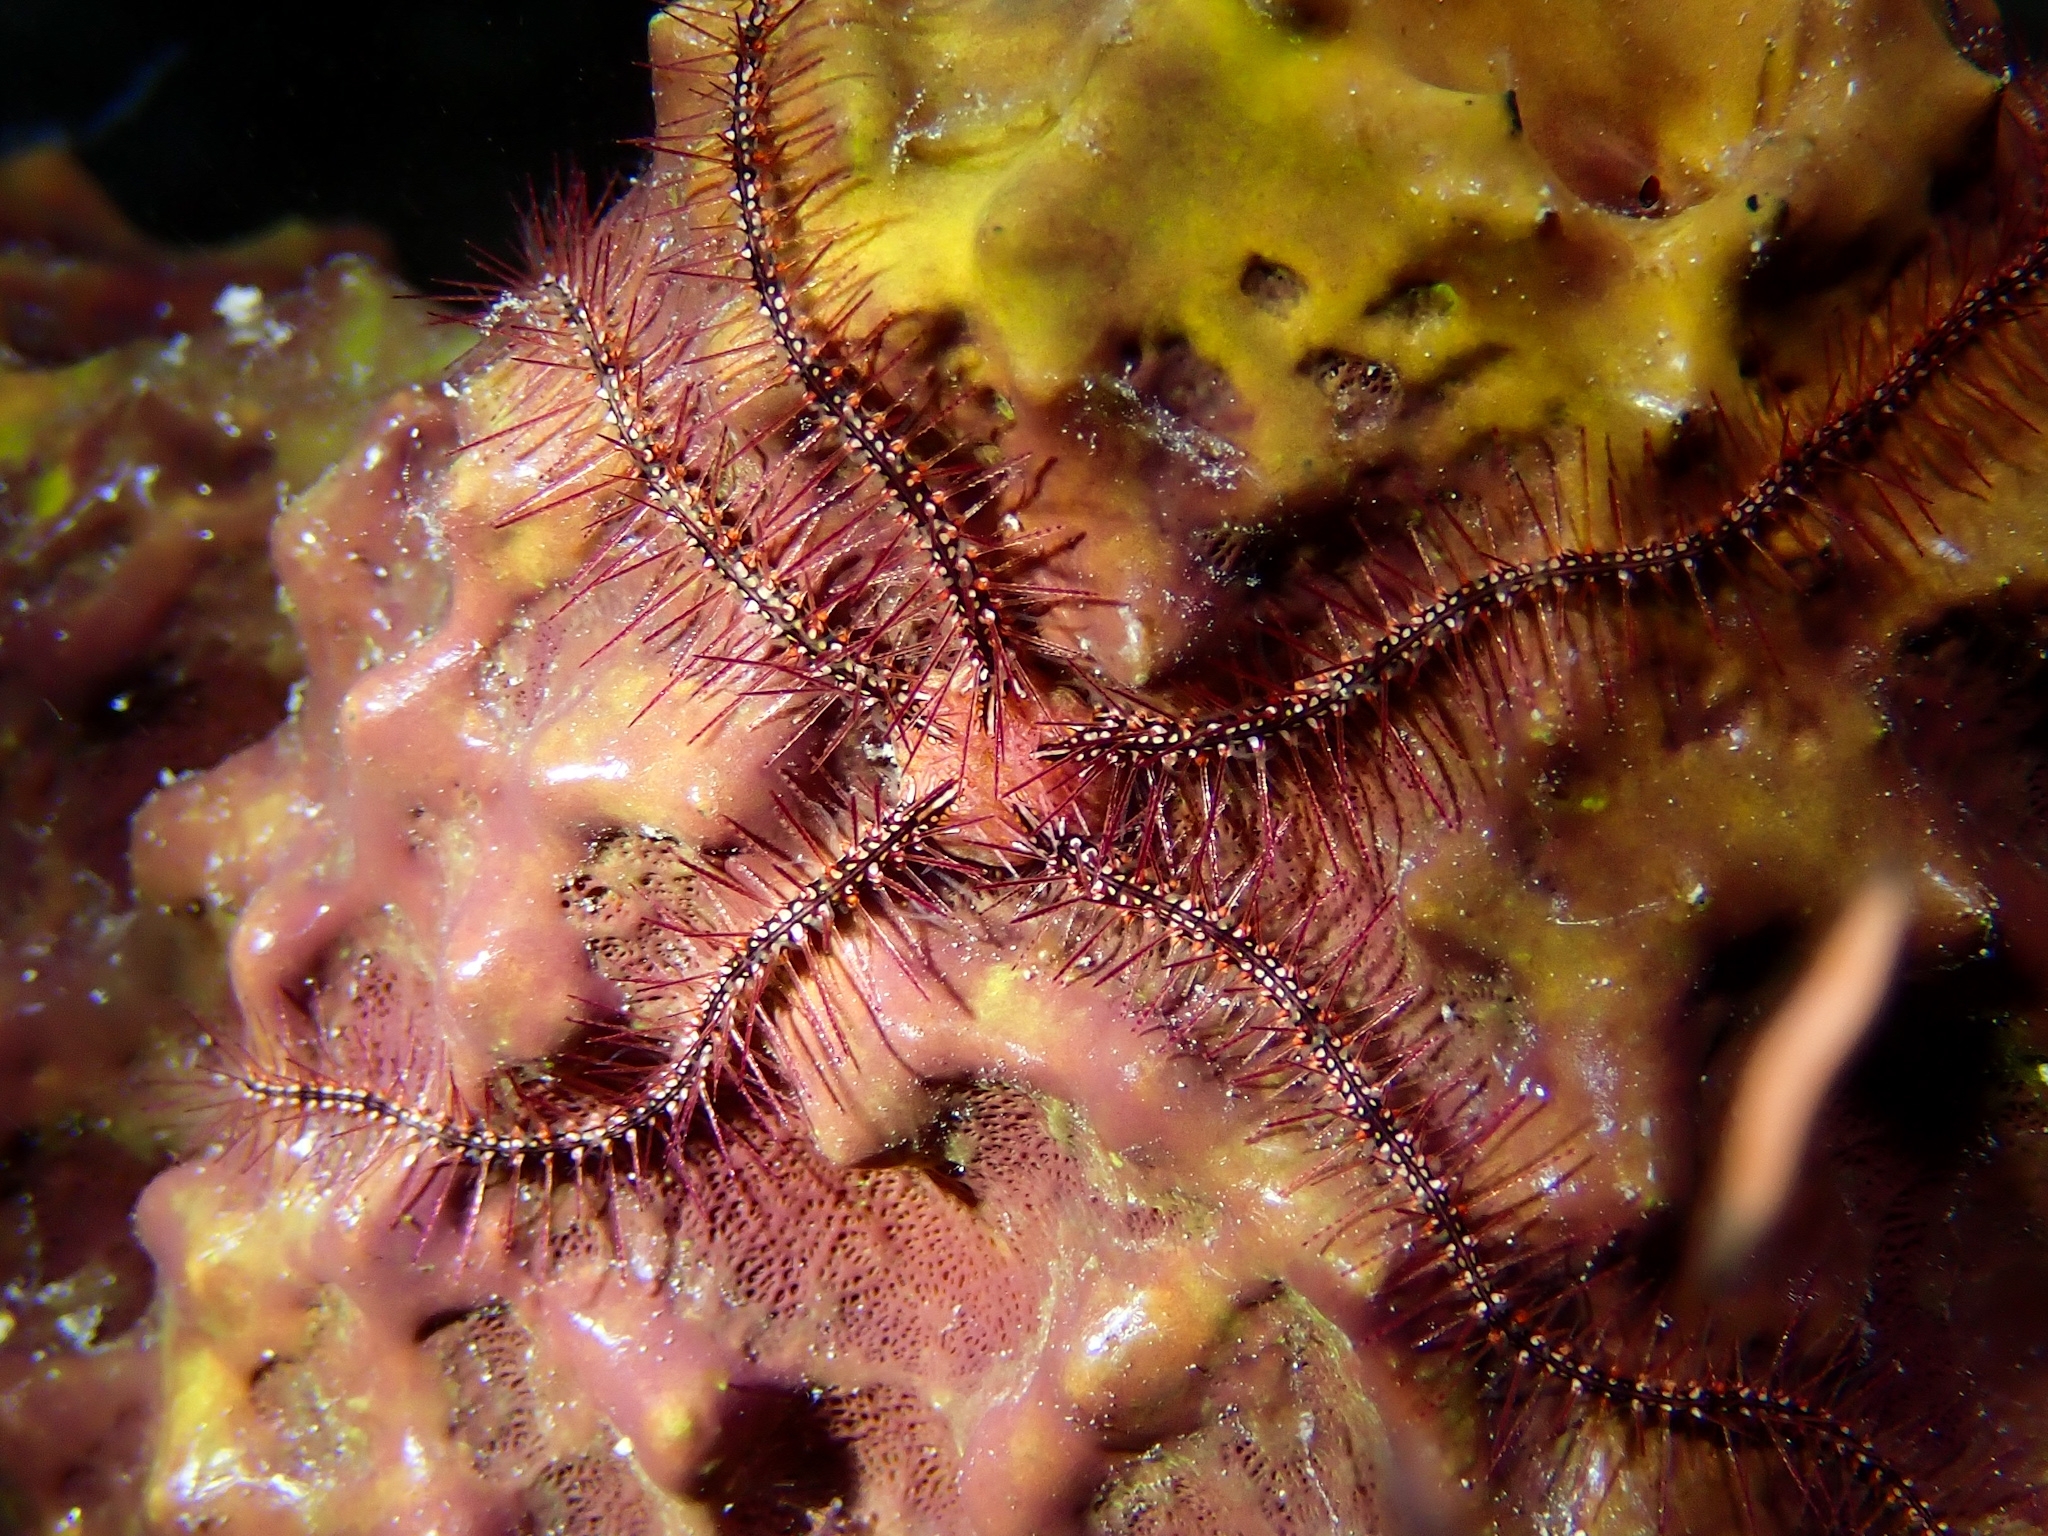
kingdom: Animalia
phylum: Echinodermata
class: Ophiuroidea
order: Amphilepidida
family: Ophiotrichidae
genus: Ophiothrix
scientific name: Ophiothrix suensonii
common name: Sponge brittle star
